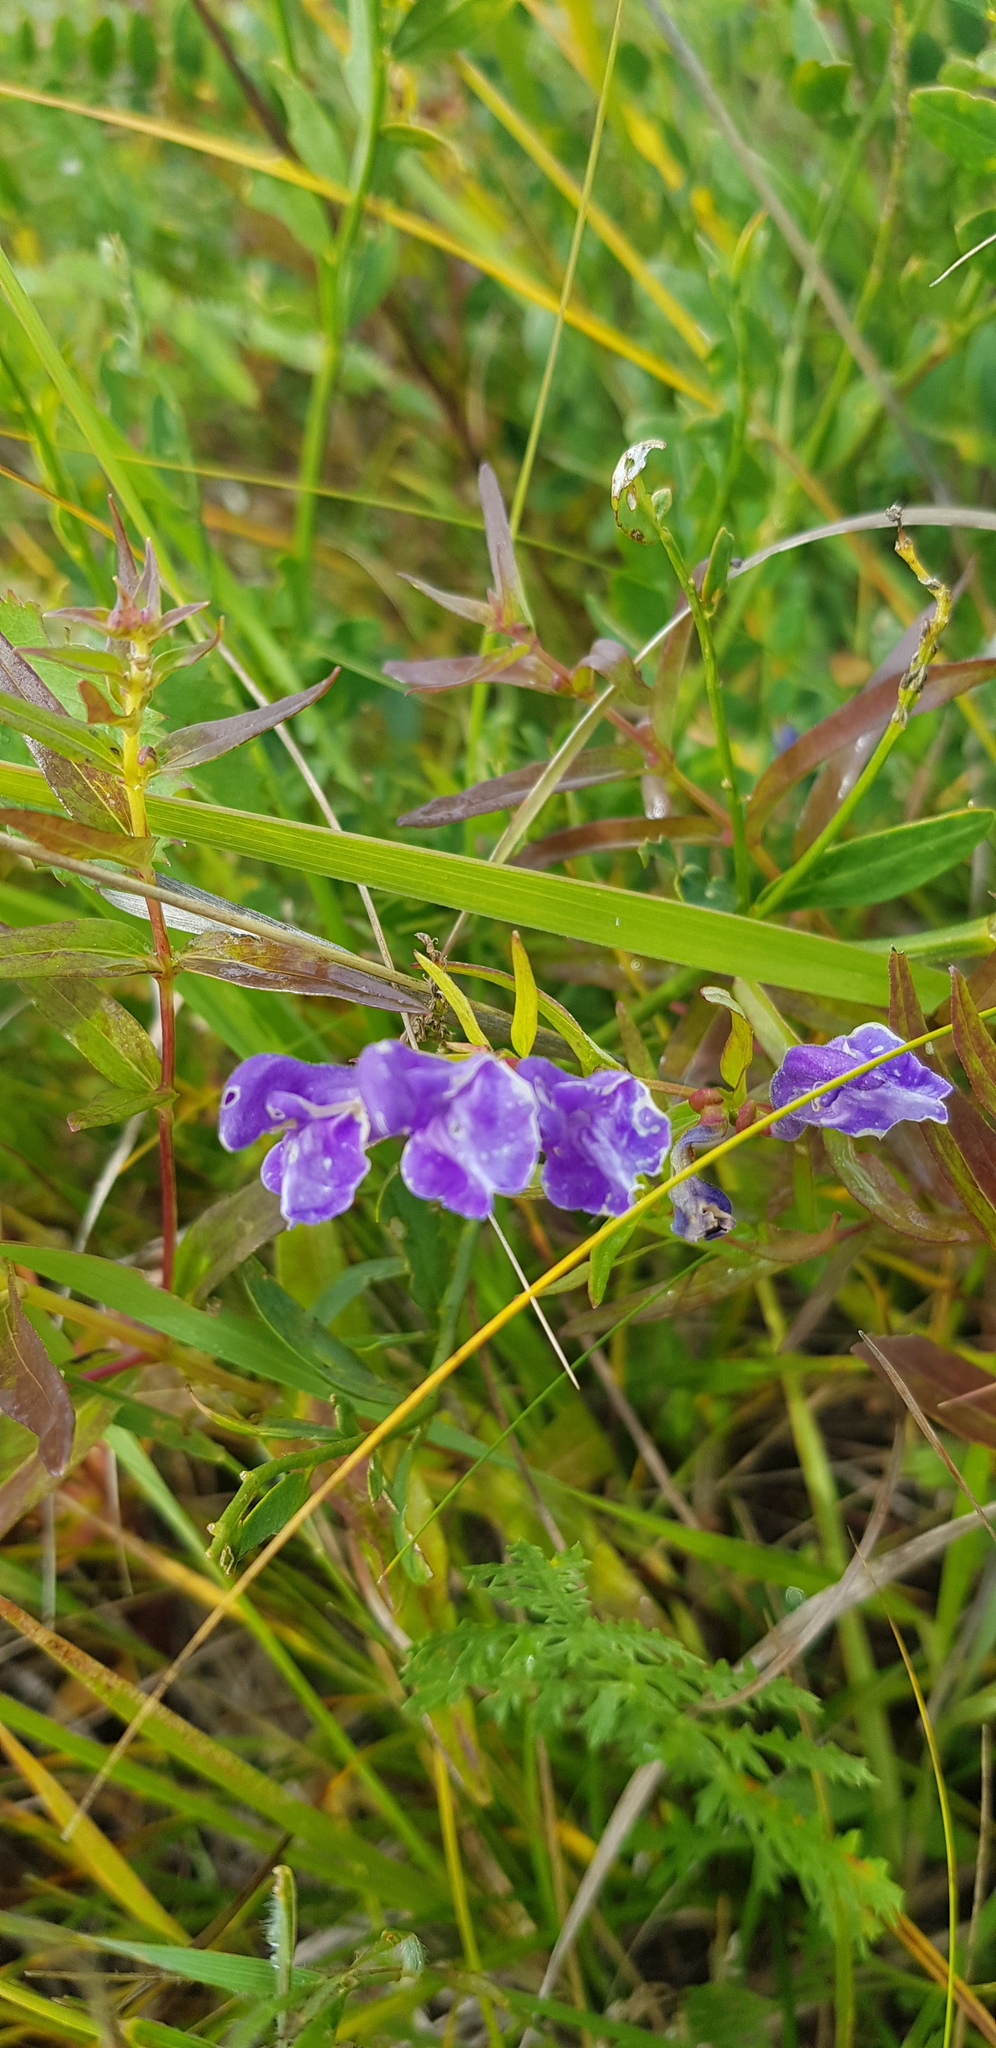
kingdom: Plantae
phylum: Tracheophyta
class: Magnoliopsida
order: Lamiales
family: Lamiaceae
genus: Scutellaria
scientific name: Scutellaria baicalensis
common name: Baikal skullcap
